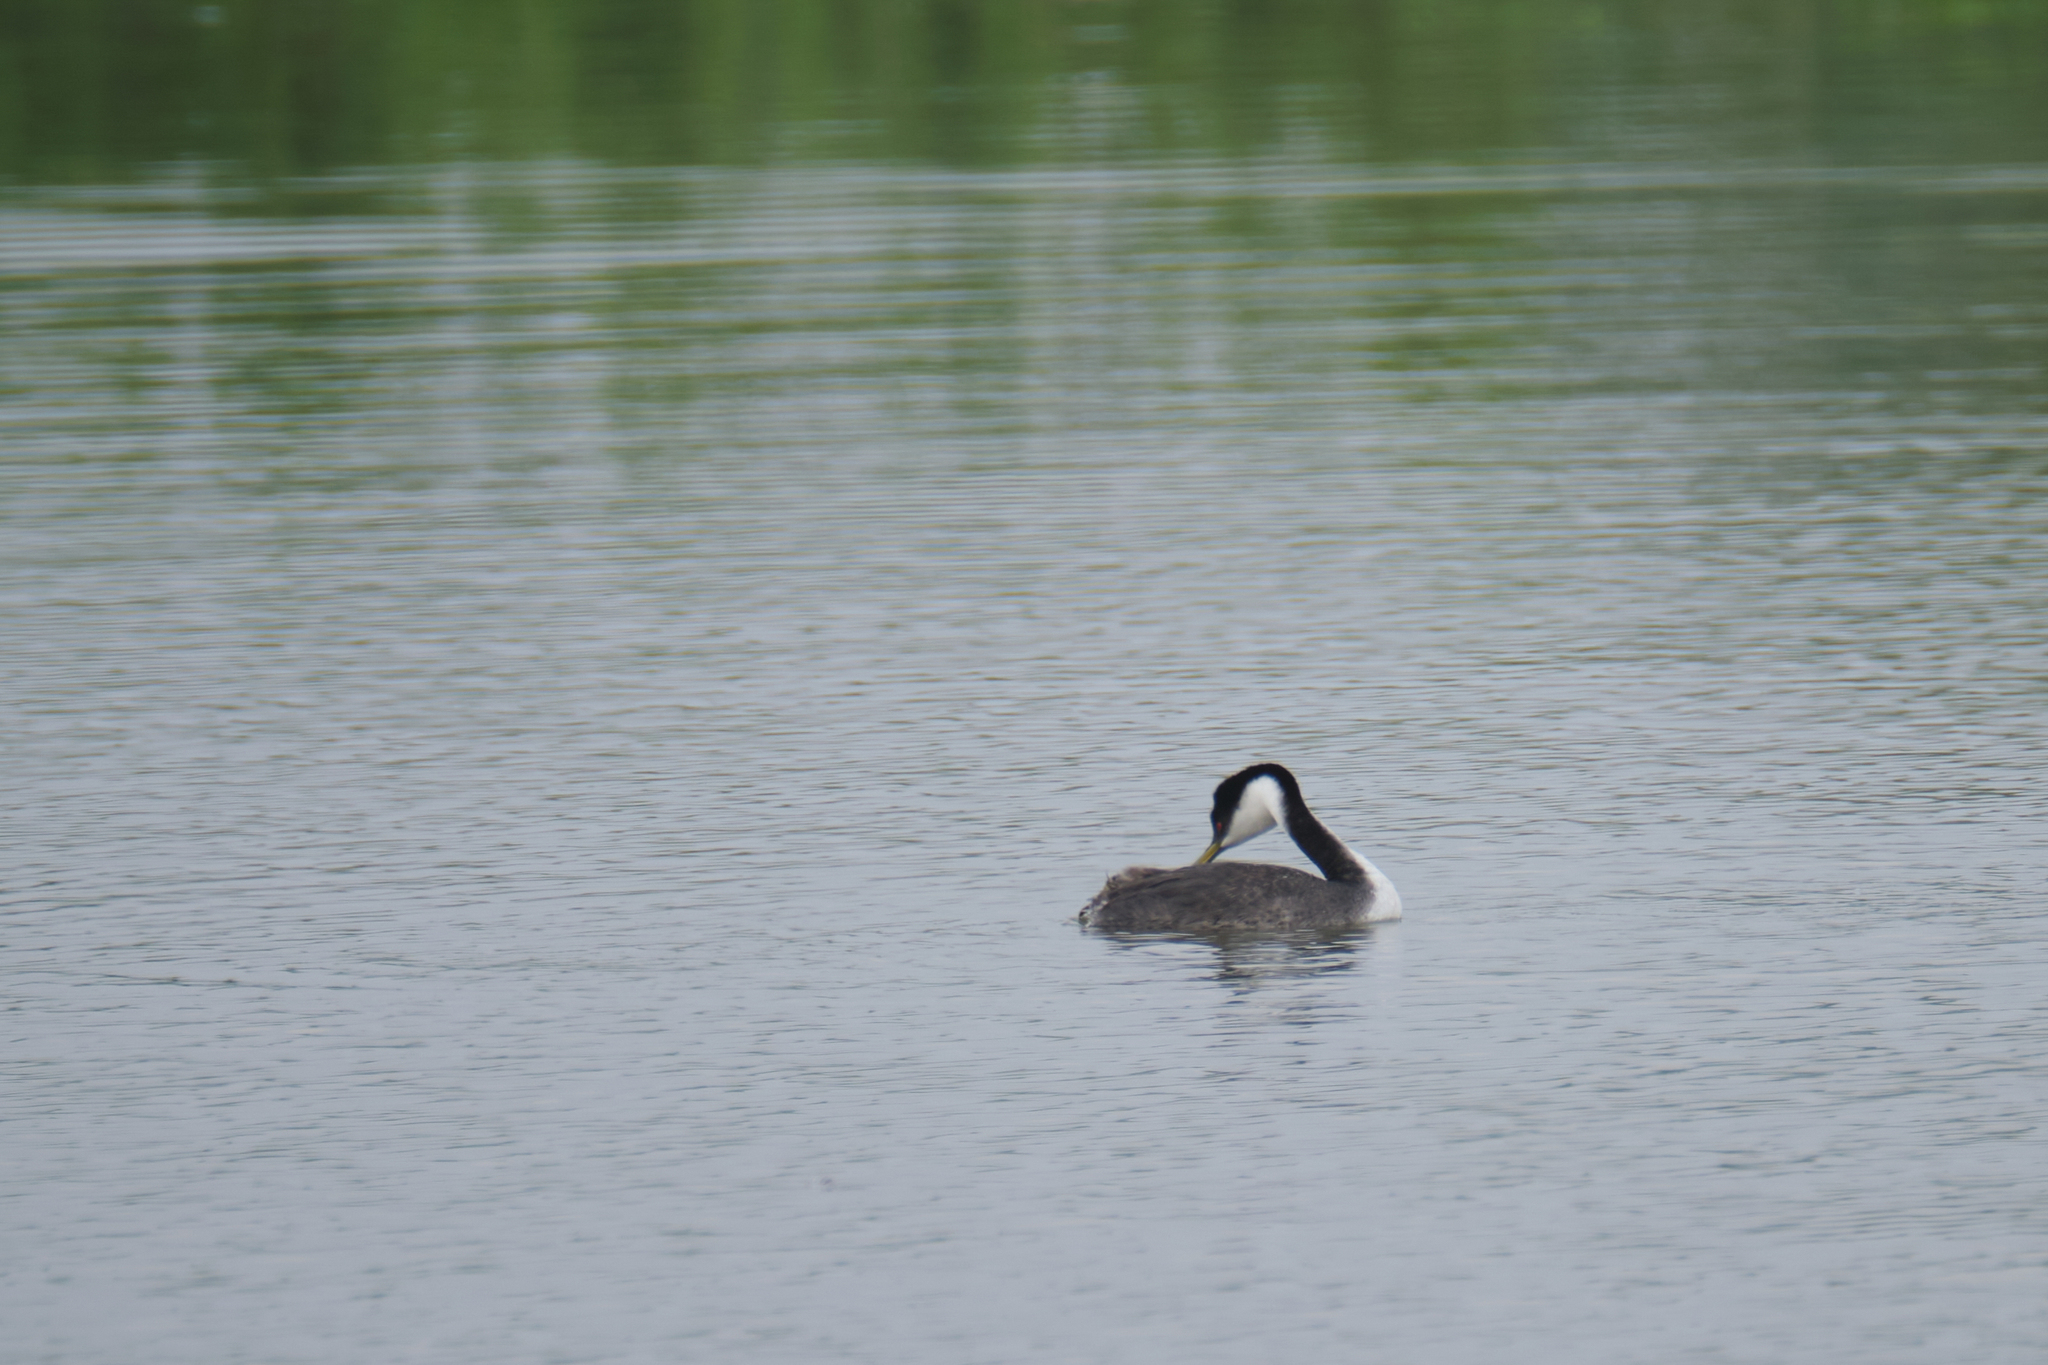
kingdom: Animalia
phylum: Chordata
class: Aves
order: Podicipediformes
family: Podicipedidae
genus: Aechmophorus
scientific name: Aechmophorus occidentalis
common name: Western grebe
